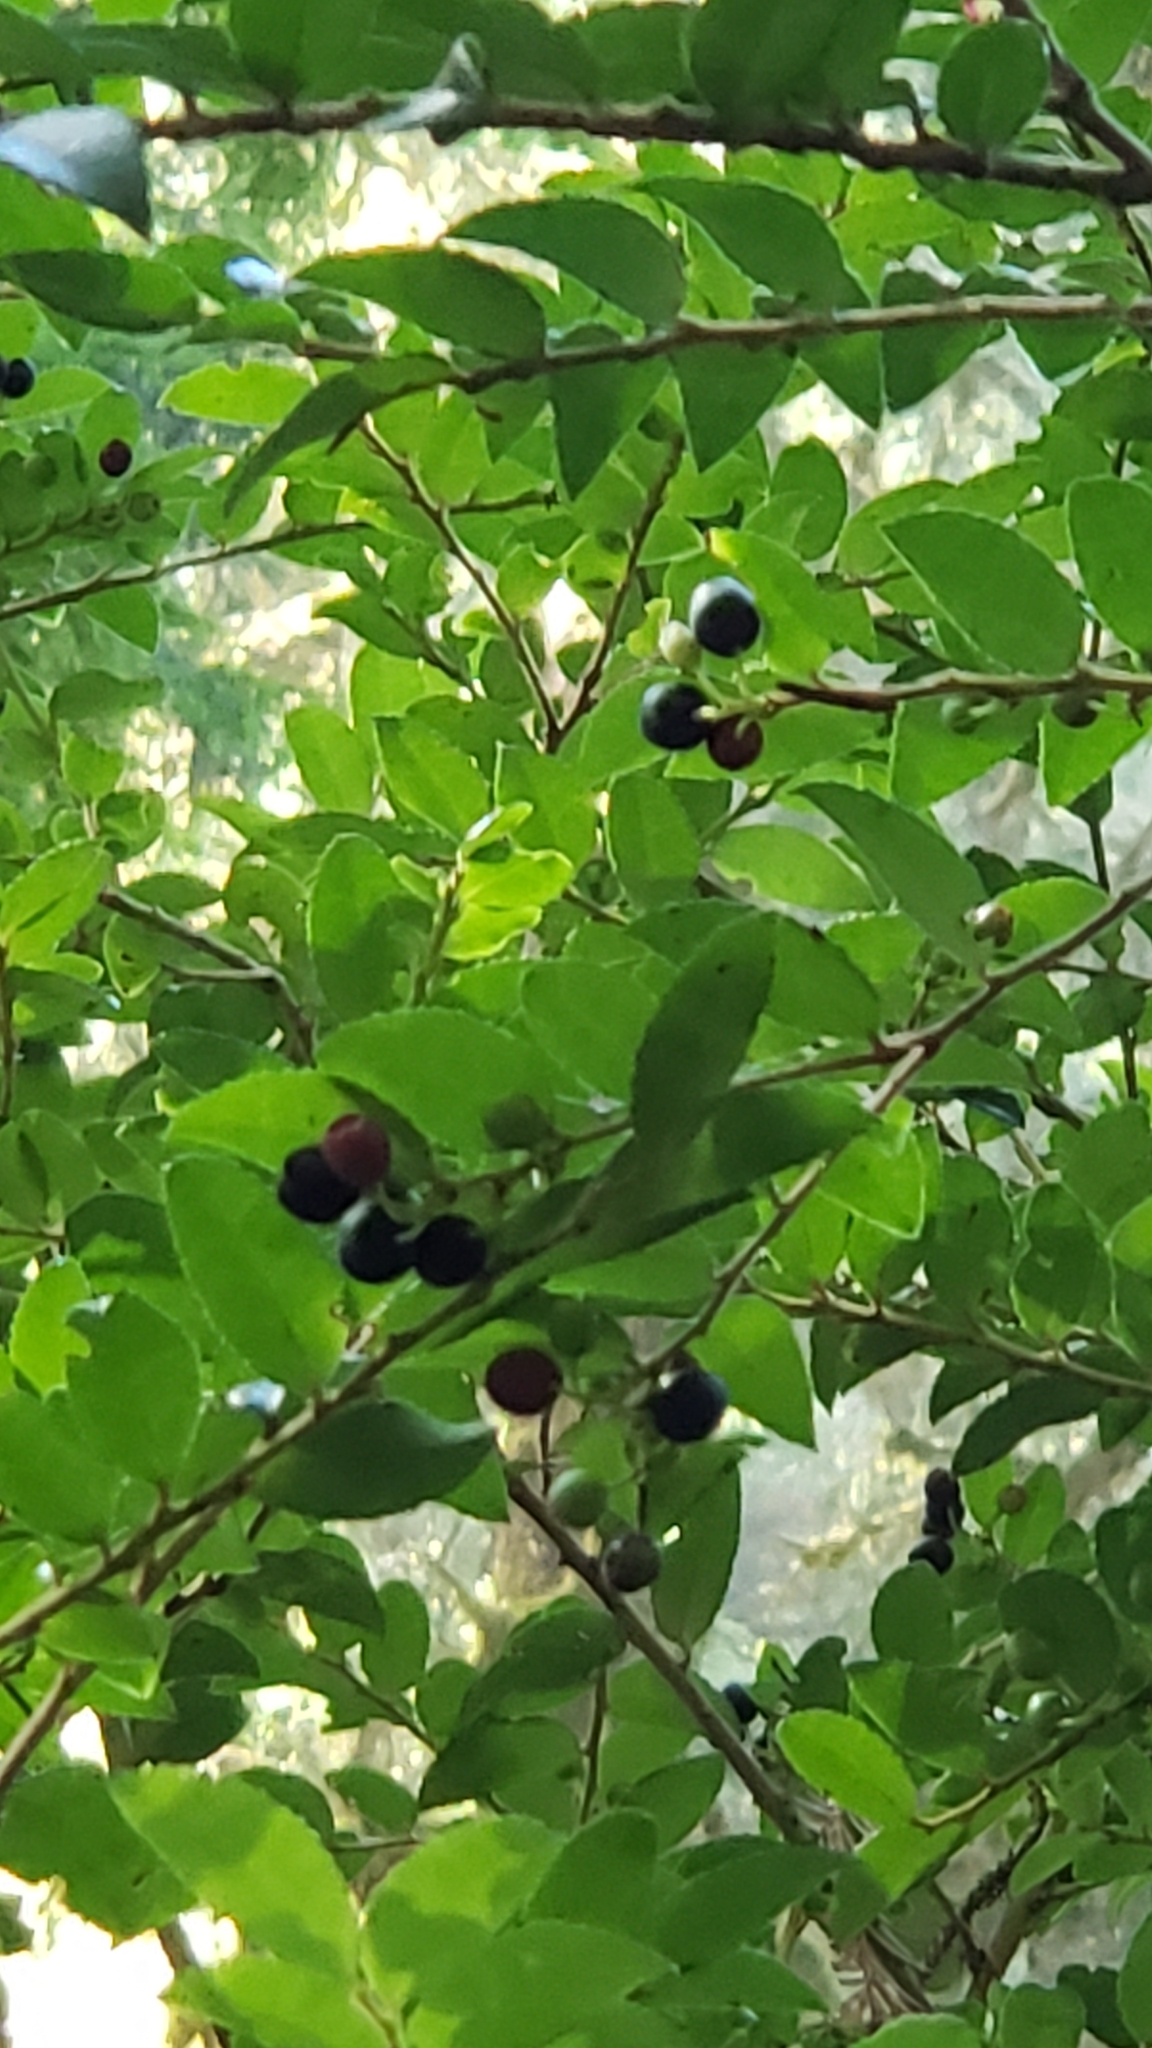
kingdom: Plantae
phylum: Tracheophyta
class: Magnoliopsida
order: Ericales
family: Ericaceae
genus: Vaccinium
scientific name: Vaccinium ovatum
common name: California-huckleberry
